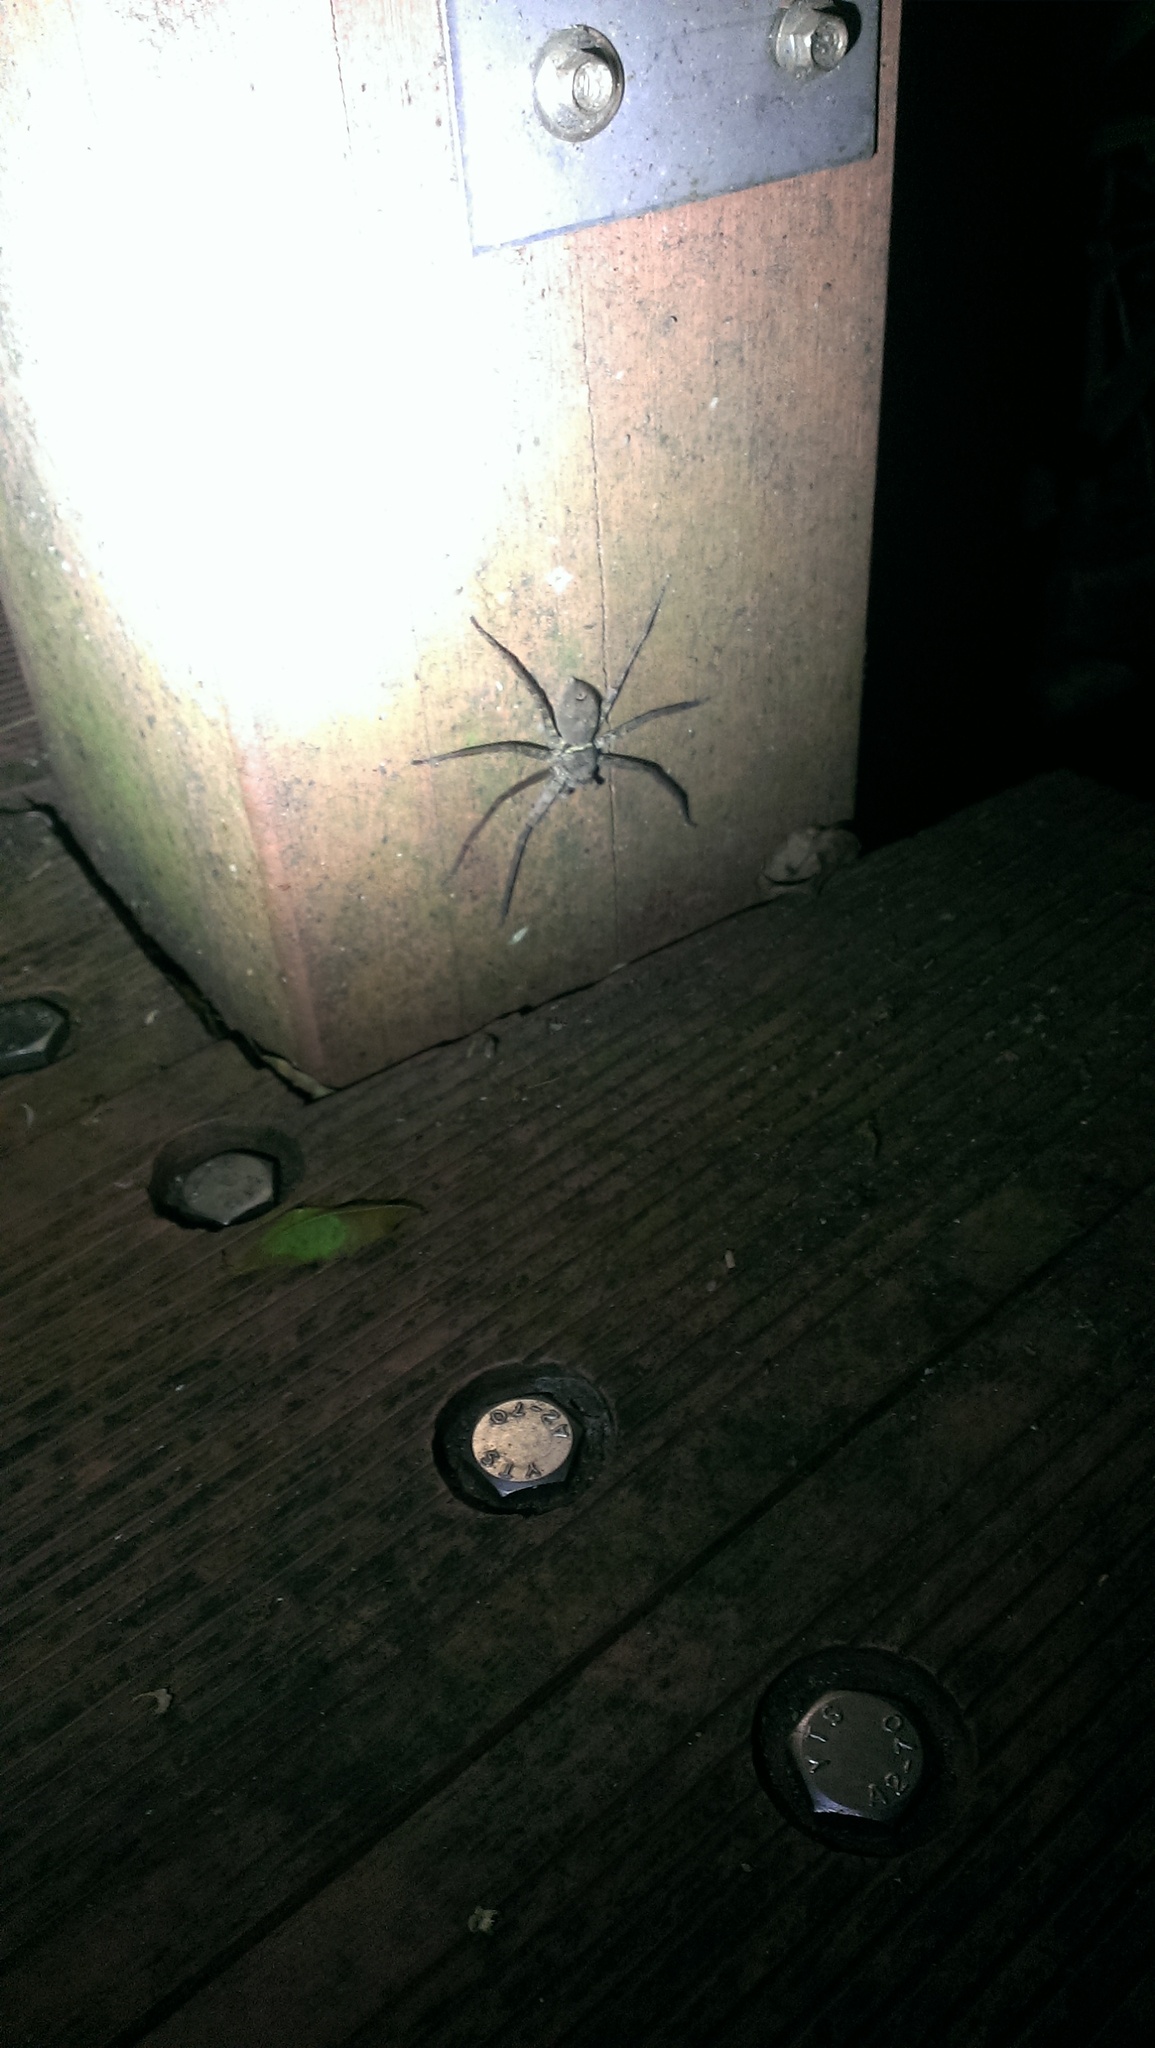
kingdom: Animalia
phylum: Arthropoda
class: Arachnida
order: Araneae
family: Sparassidae
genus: Heteropoda
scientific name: Heteropoda venatoria
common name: Huntsman spider
